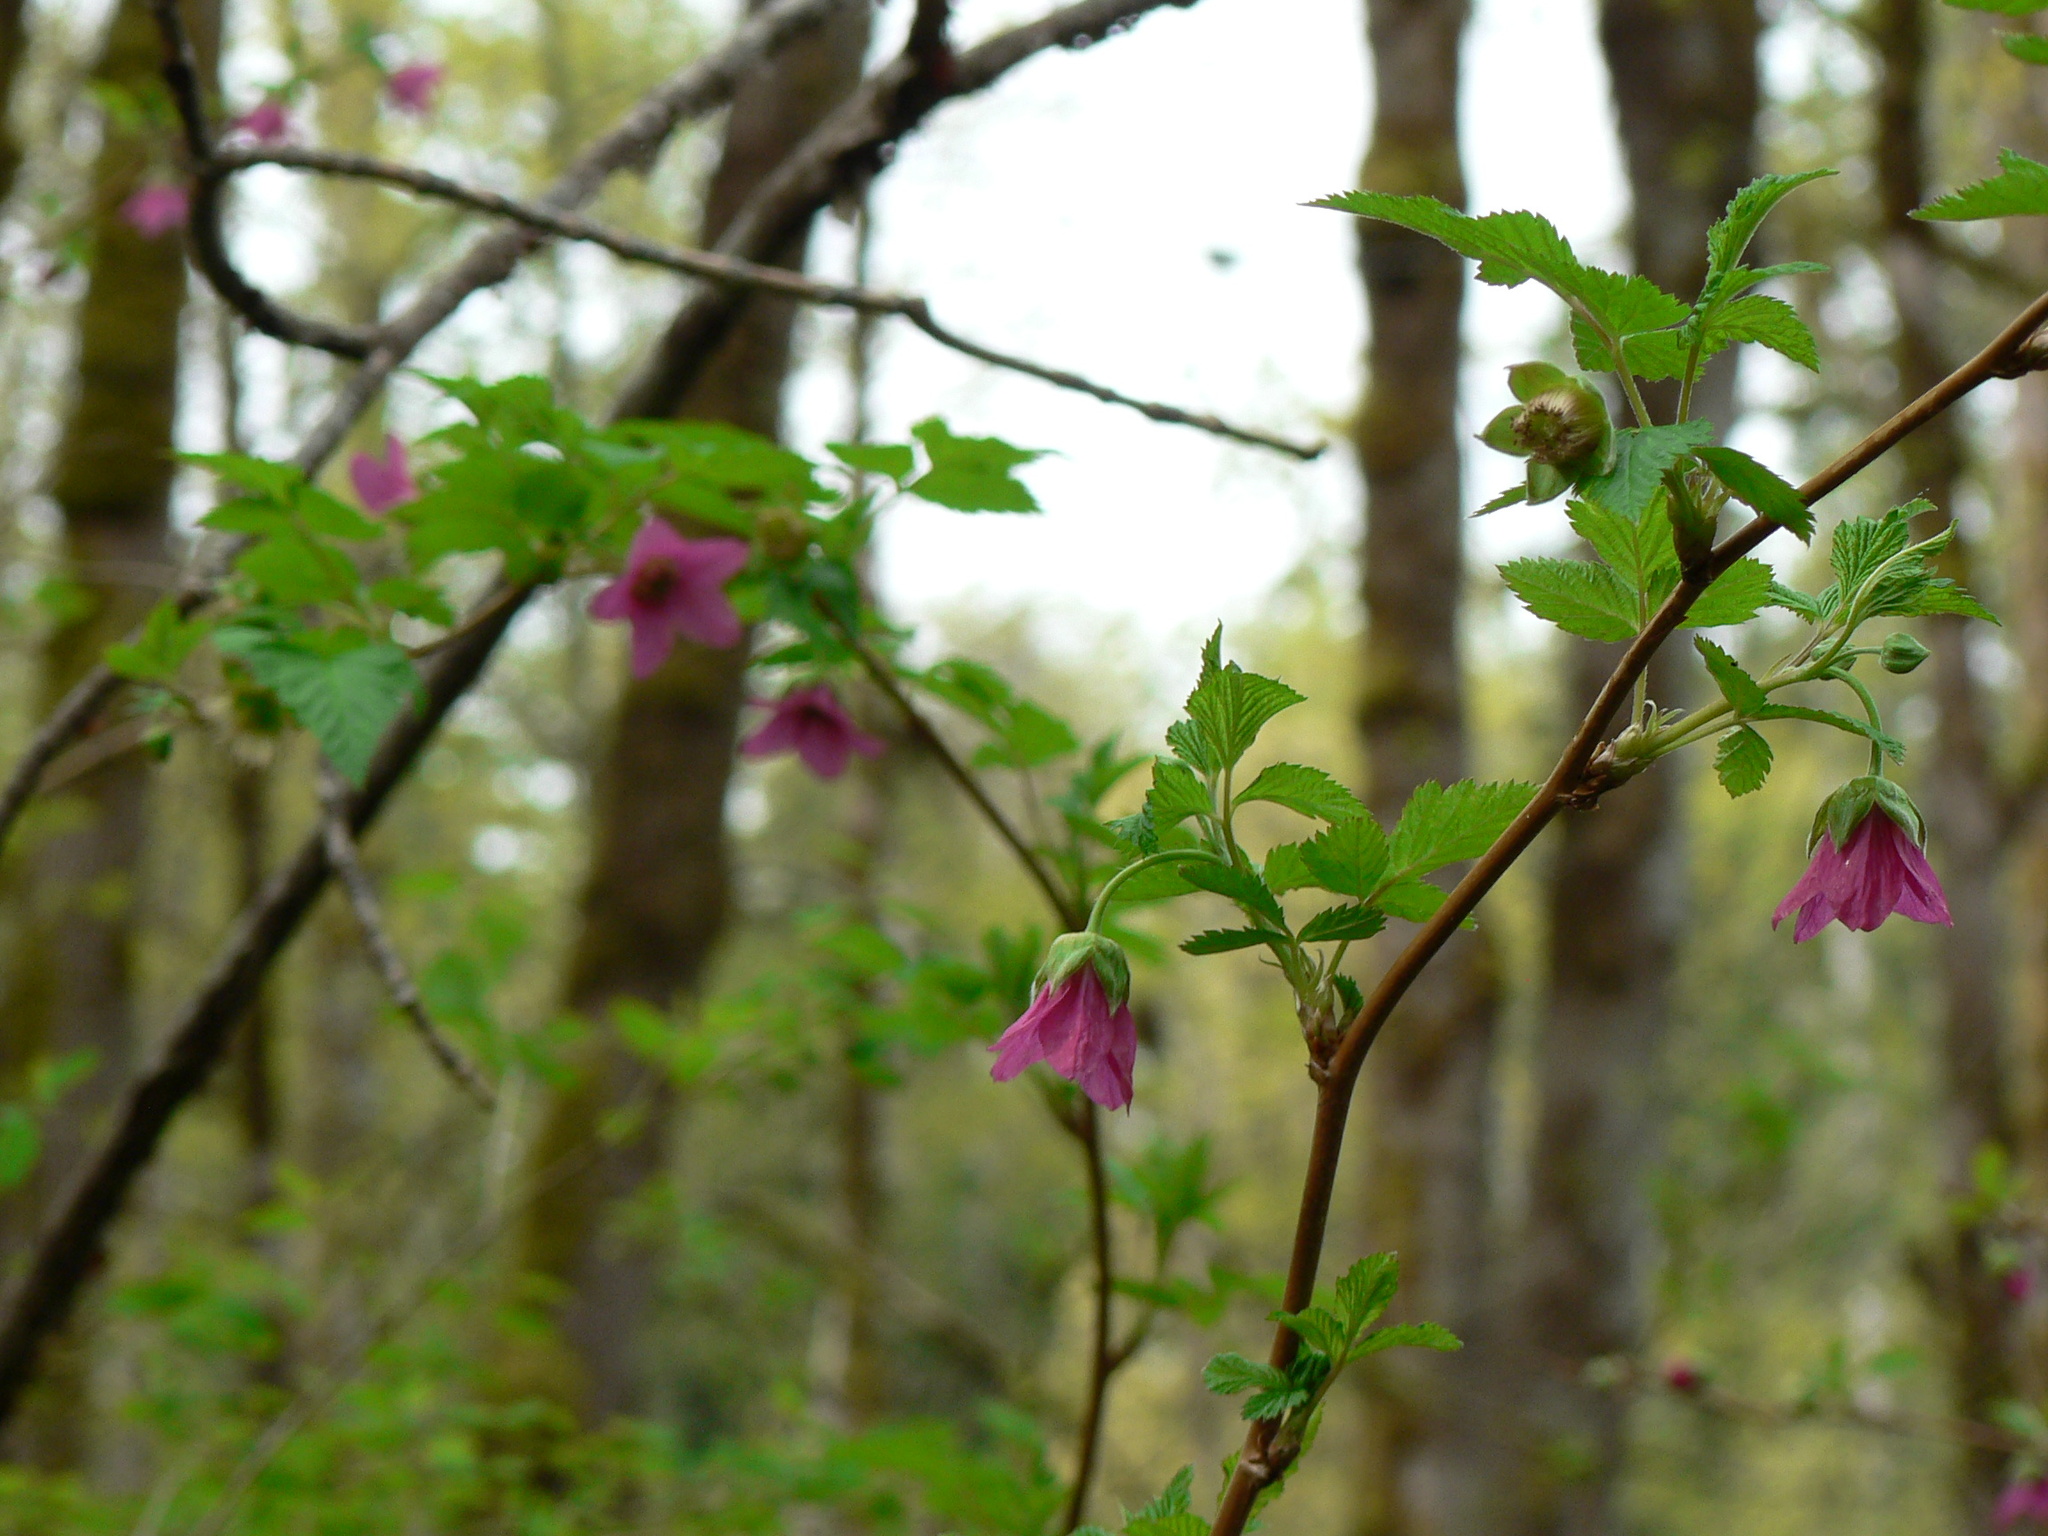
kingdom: Plantae
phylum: Tracheophyta
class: Magnoliopsida
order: Rosales
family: Rosaceae
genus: Rubus
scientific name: Rubus spectabilis
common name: Salmonberry
